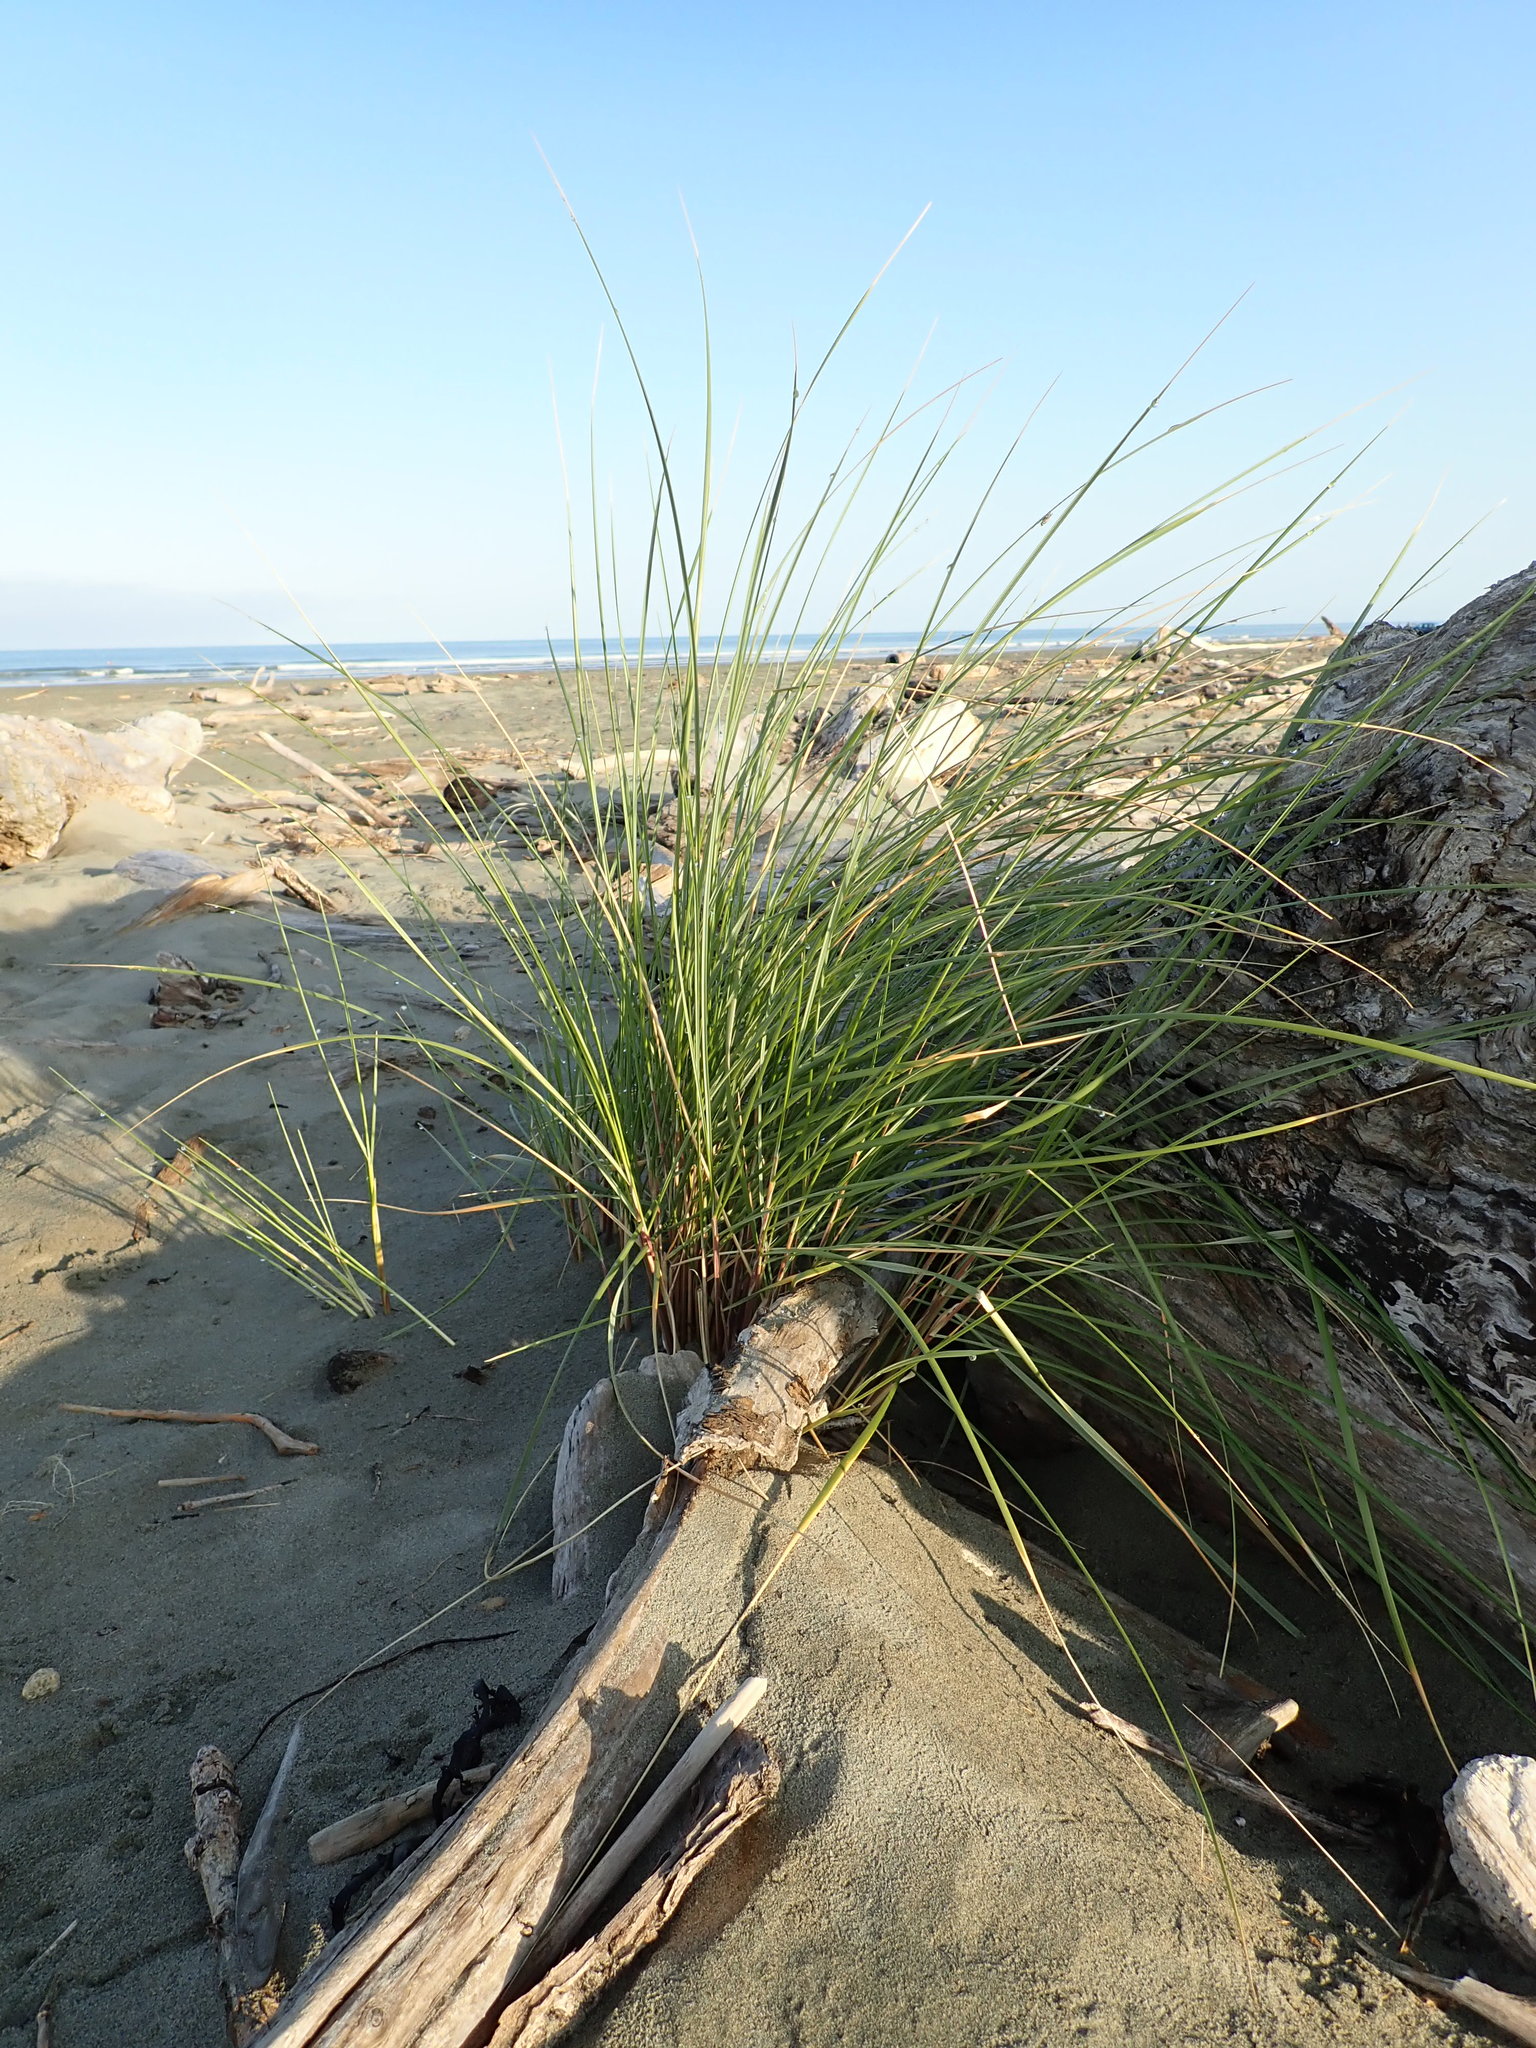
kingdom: Plantae
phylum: Tracheophyta
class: Liliopsida
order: Poales
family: Poaceae
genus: Calamagrostis
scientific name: Calamagrostis arenaria
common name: European beachgrass
